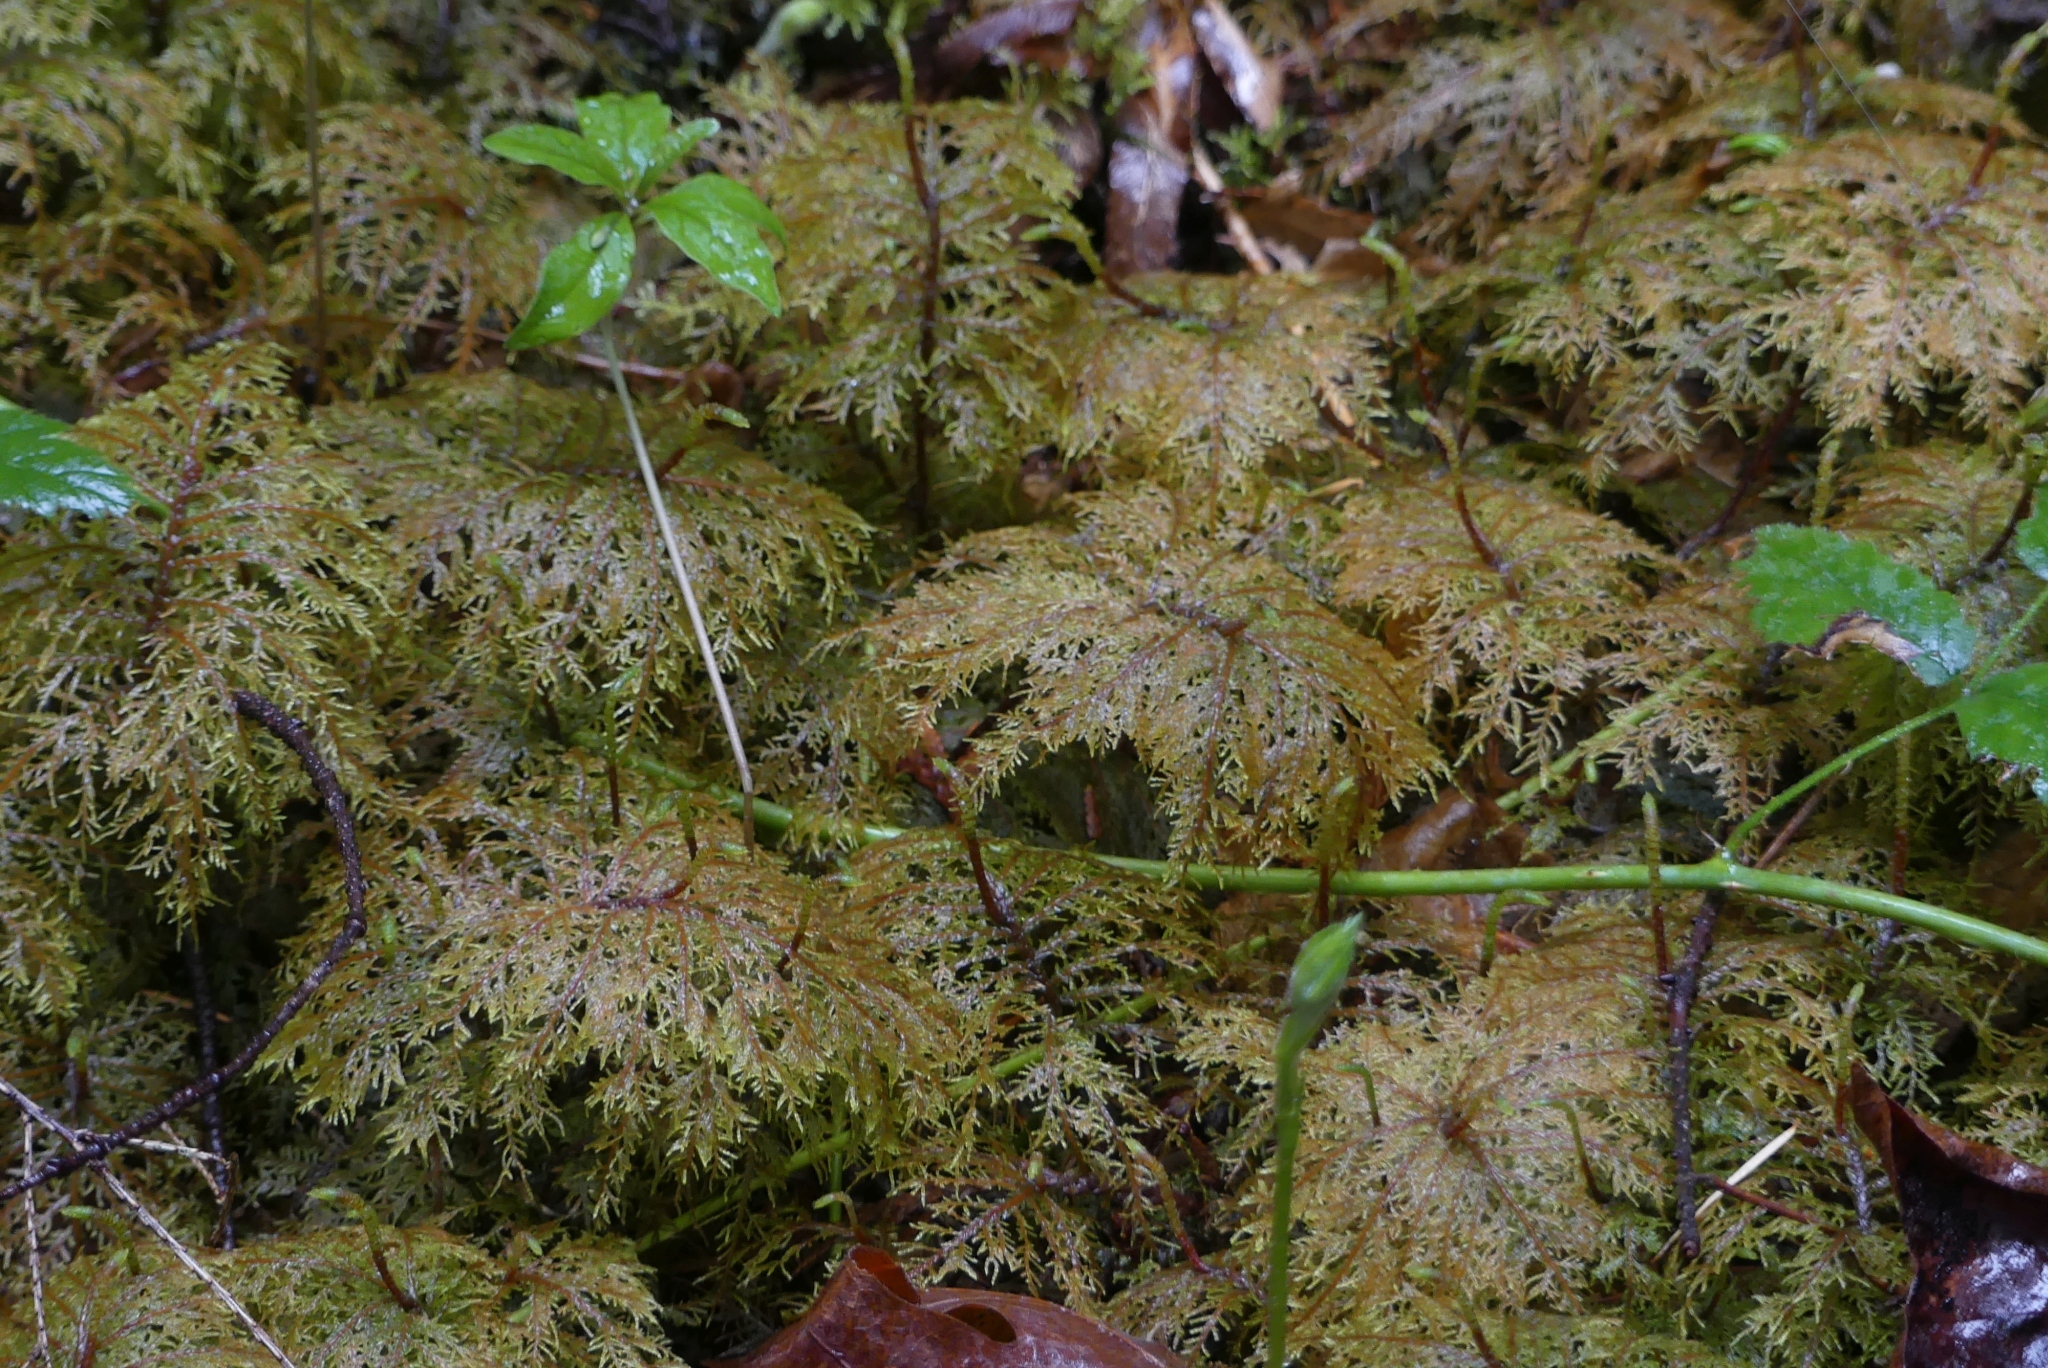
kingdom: Plantae
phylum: Bryophyta
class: Bryopsida
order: Hypnales
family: Hylocomiaceae
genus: Hylocomium
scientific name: Hylocomium splendens
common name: Stairstep moss
